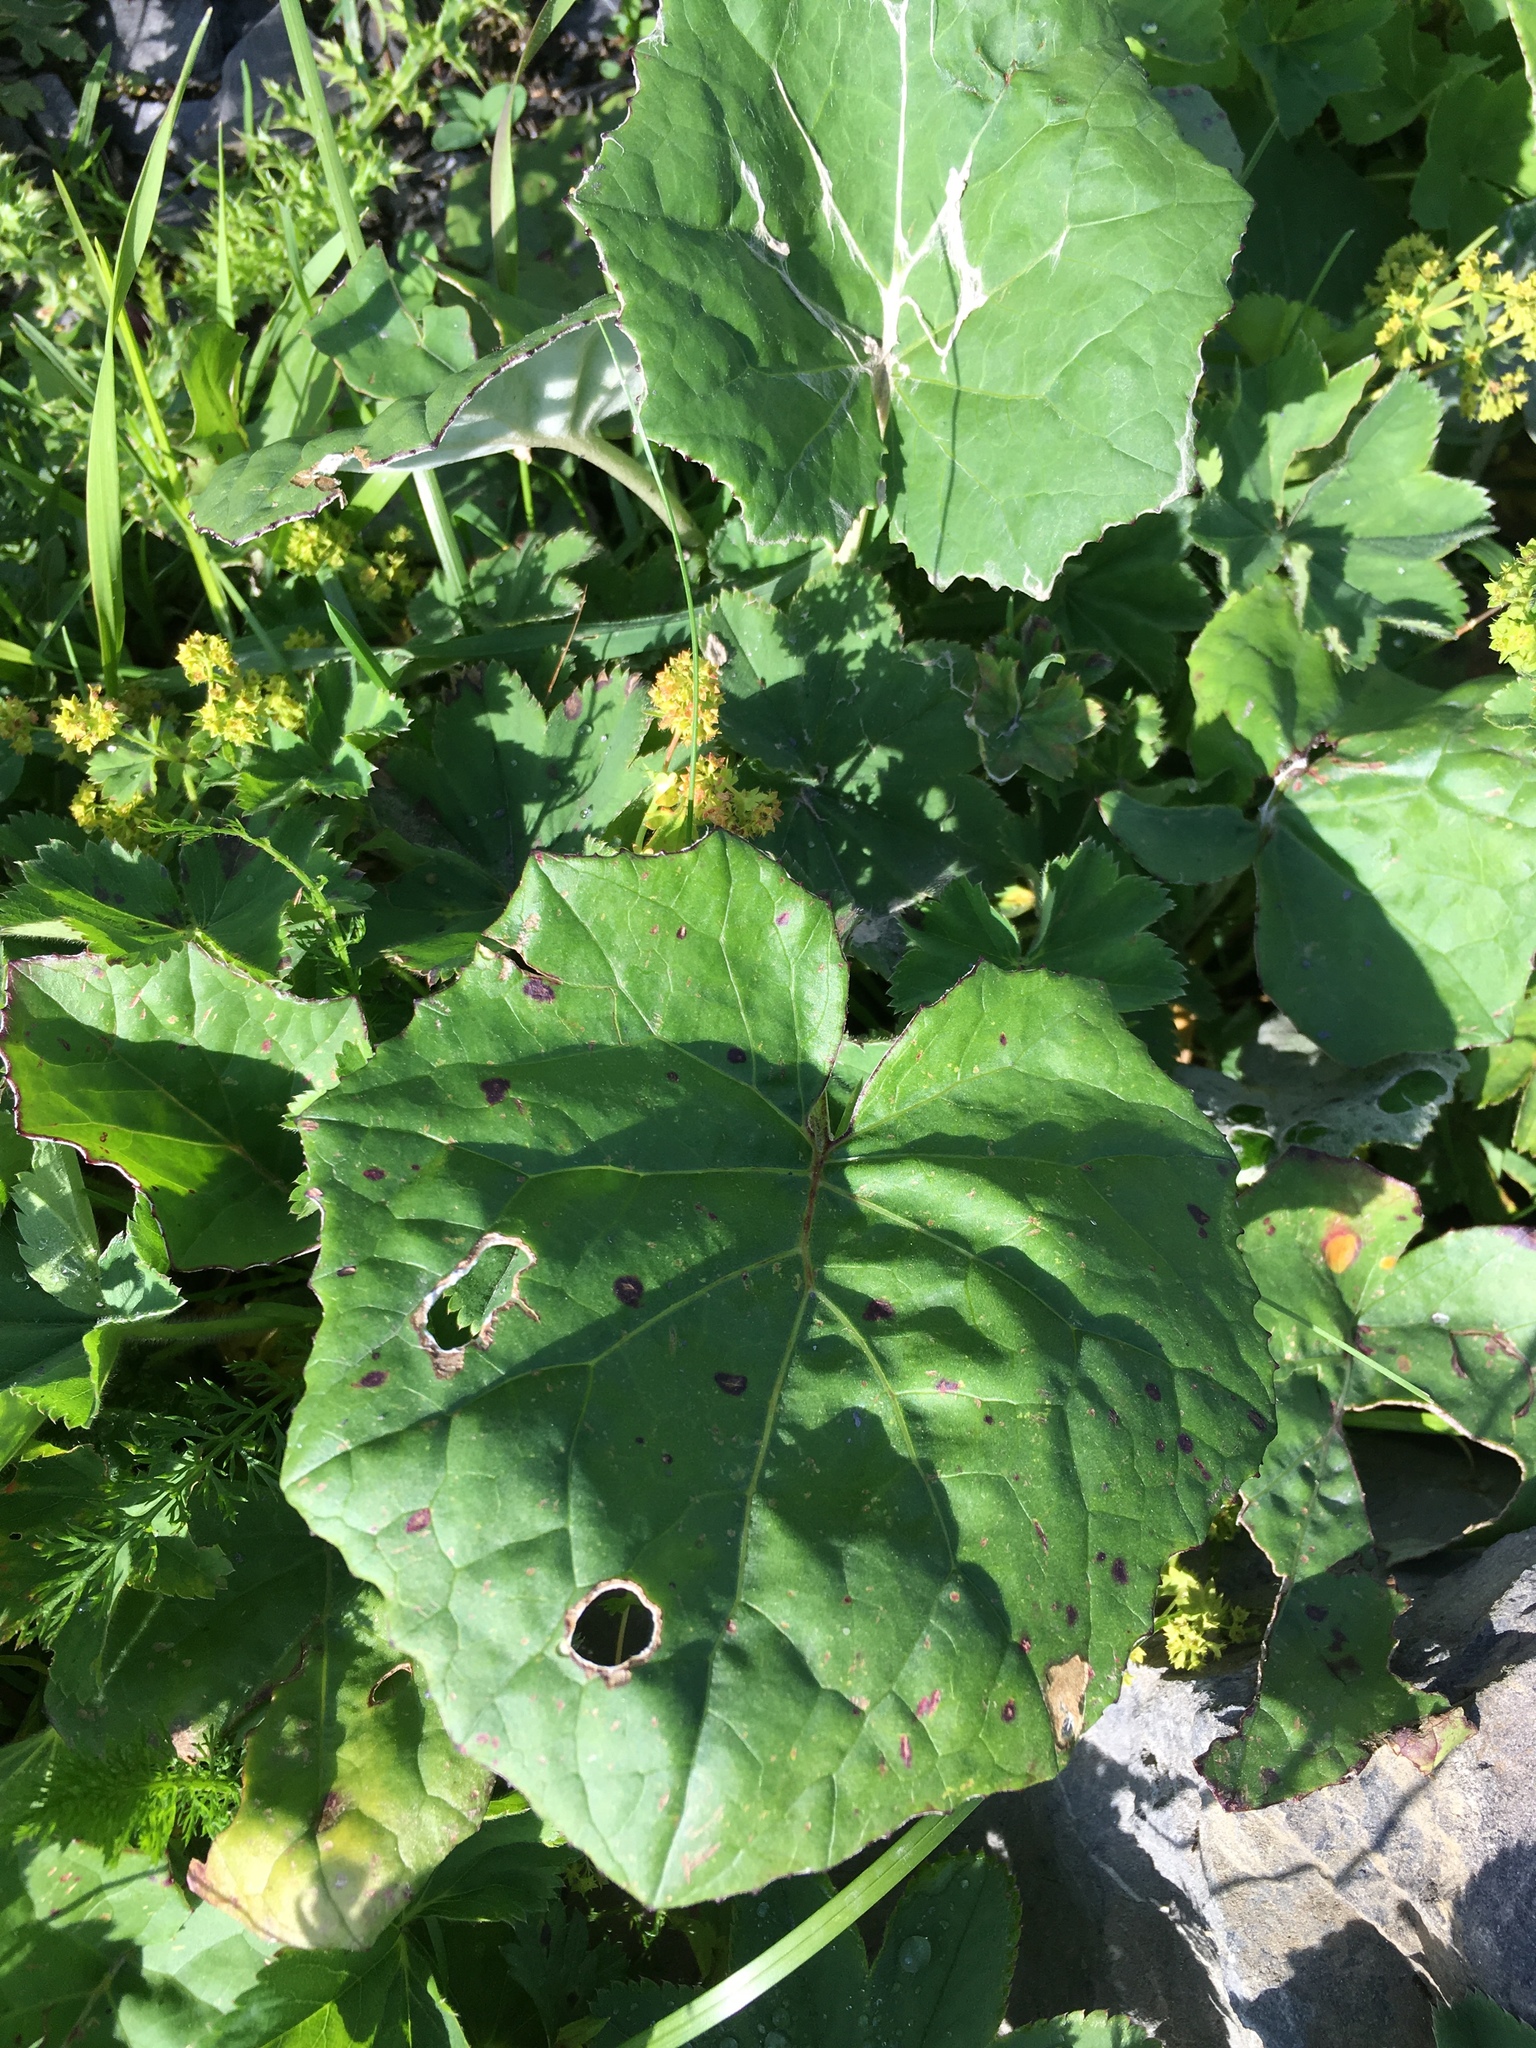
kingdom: Plantae
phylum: Tracheophyta
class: Magnoliopsida
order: Asterales
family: Asteraceae
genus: Tussilago
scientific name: Tussilago farfara
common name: Coltsfoot
